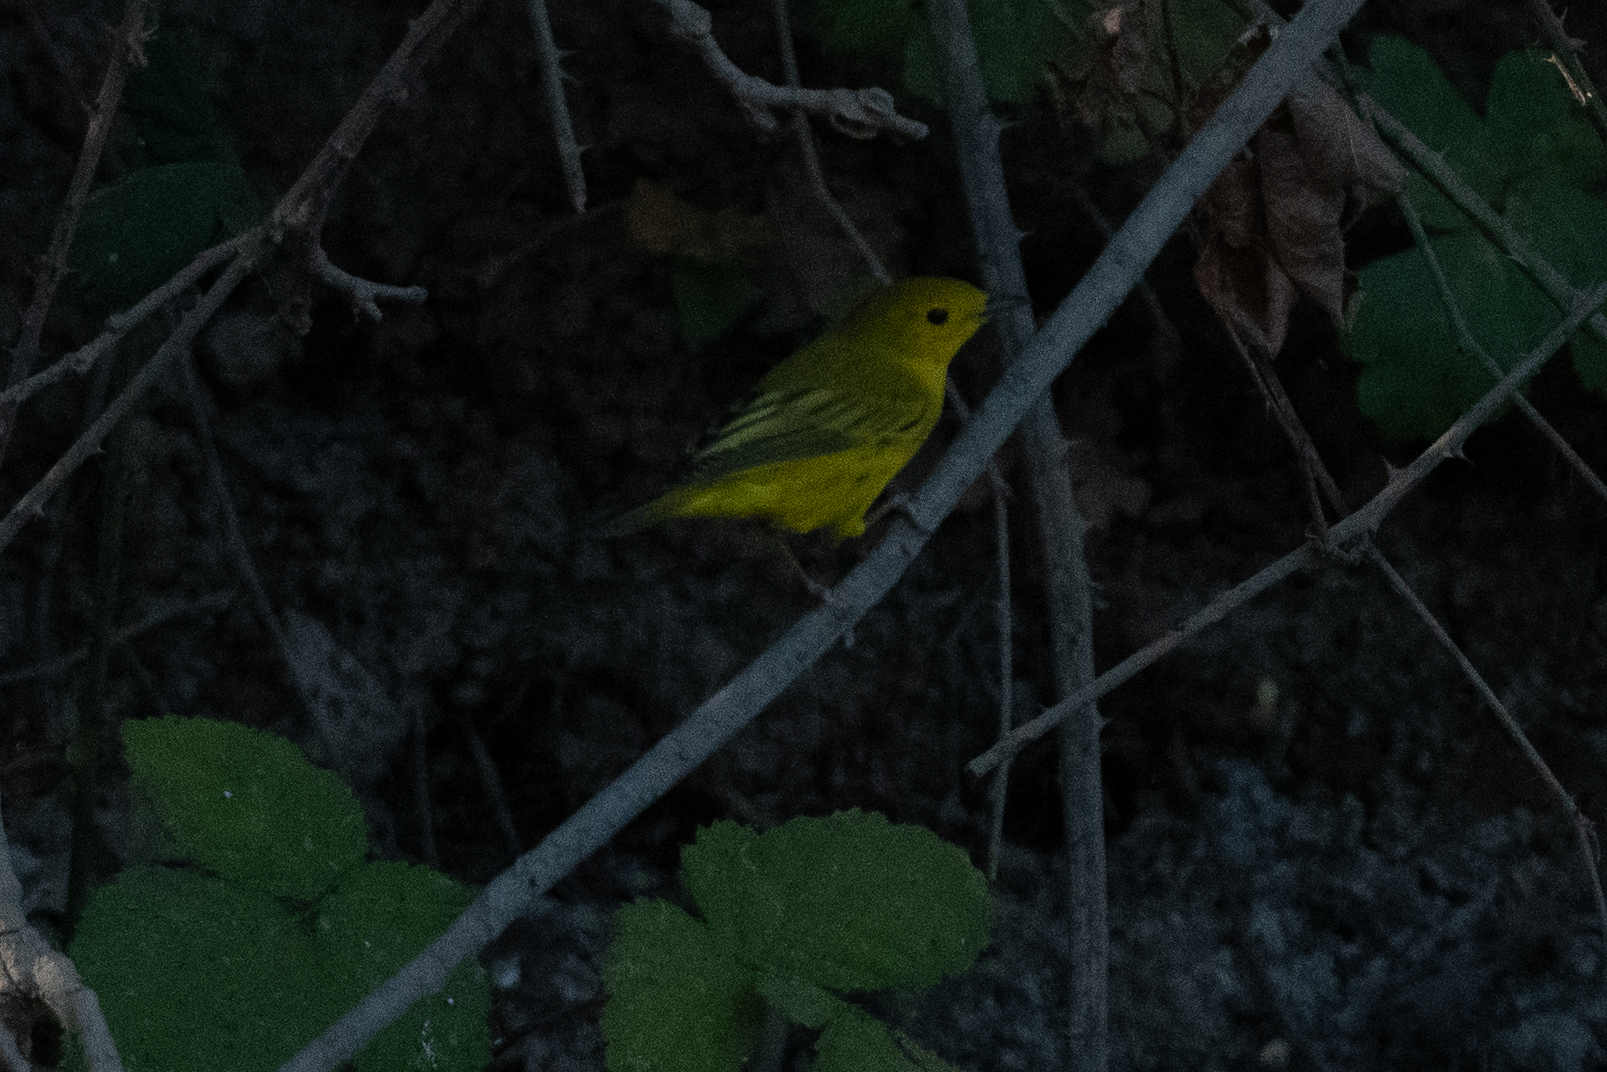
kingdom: Animalia
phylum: Chordata
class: Aves
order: Passeriformes
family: Parulidae
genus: Setophaga
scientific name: Setophaga petechia
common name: Yellow warbler
